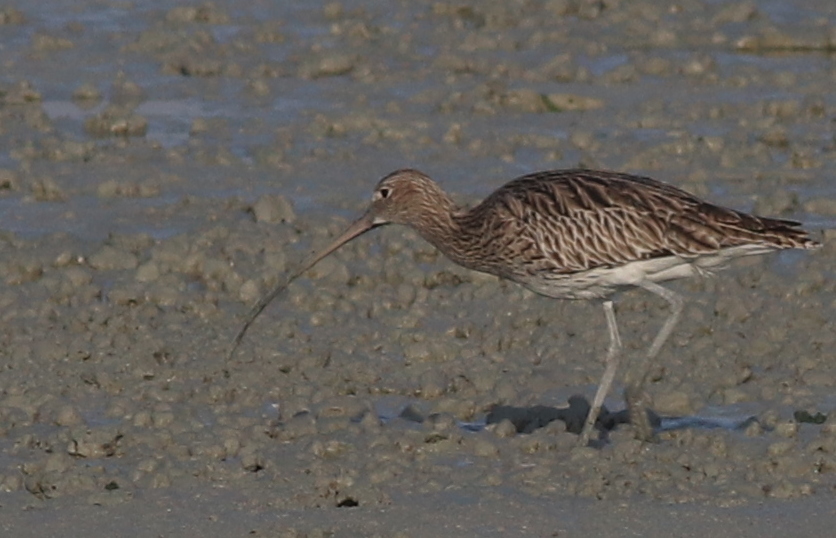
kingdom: Animalia
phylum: Chordata
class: Aves
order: Charadriiformes
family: Scolopacidae
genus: Numenius
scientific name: Numenius arquata
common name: Eurasian curlew
